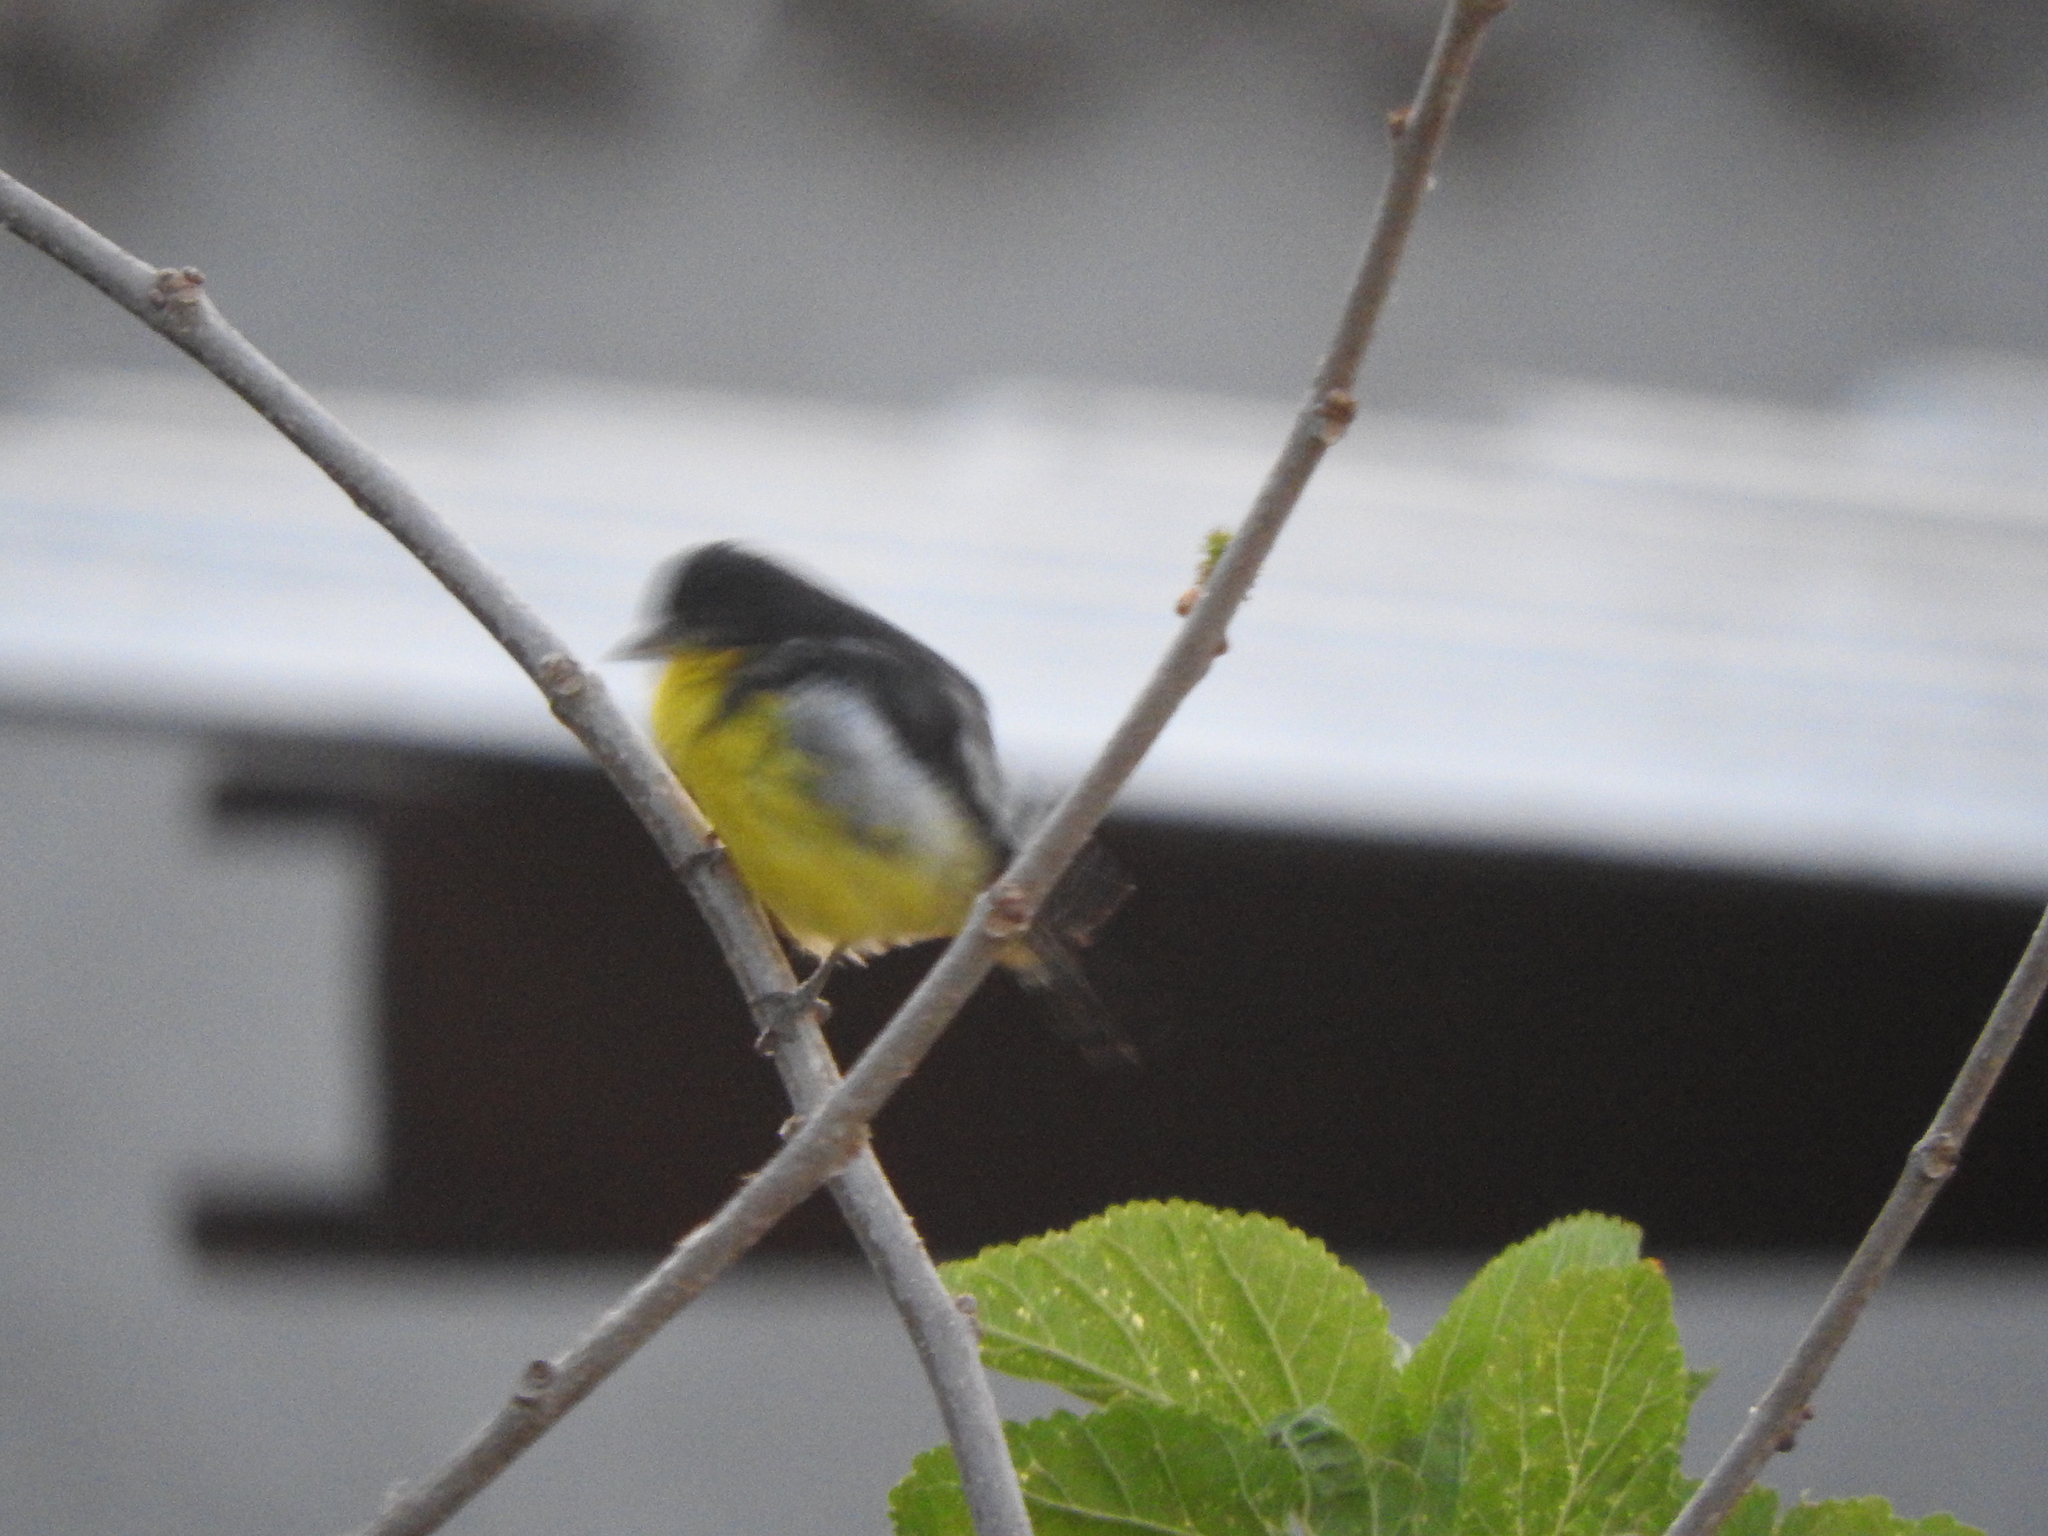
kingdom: Animalia
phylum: Chordata
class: Aves
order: Passeriformes
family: Fringillidae
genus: Spinus
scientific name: Spinus psaltria
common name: Lesser goldfinch
